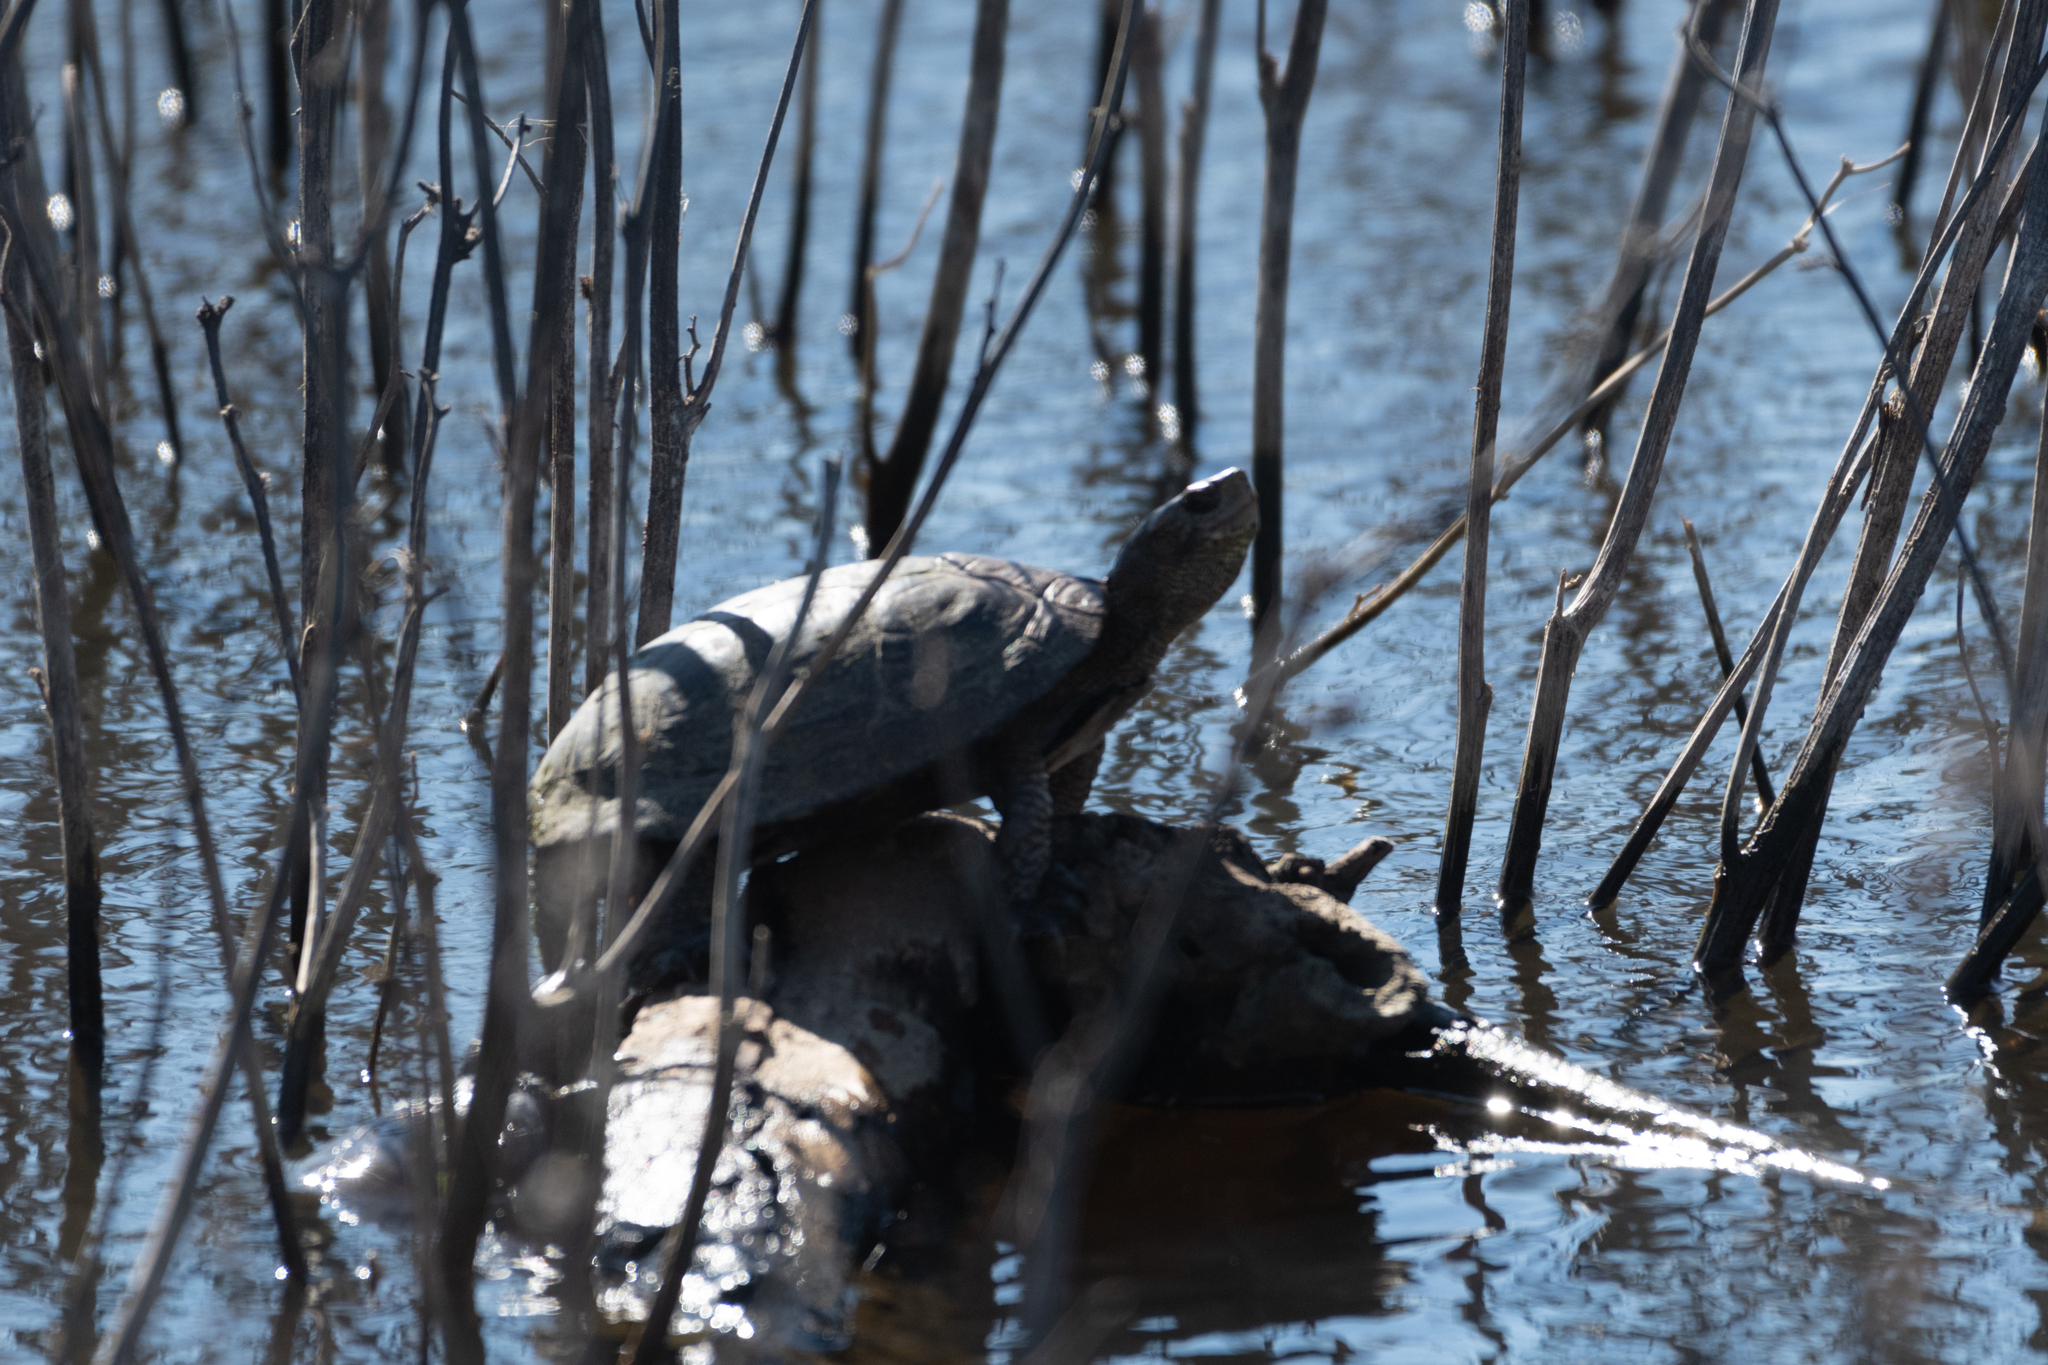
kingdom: Animalia
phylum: Chordata
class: Testudines
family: Emydidae
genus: Actinemys
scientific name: Actinemys marmorata
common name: Western pond turtle
